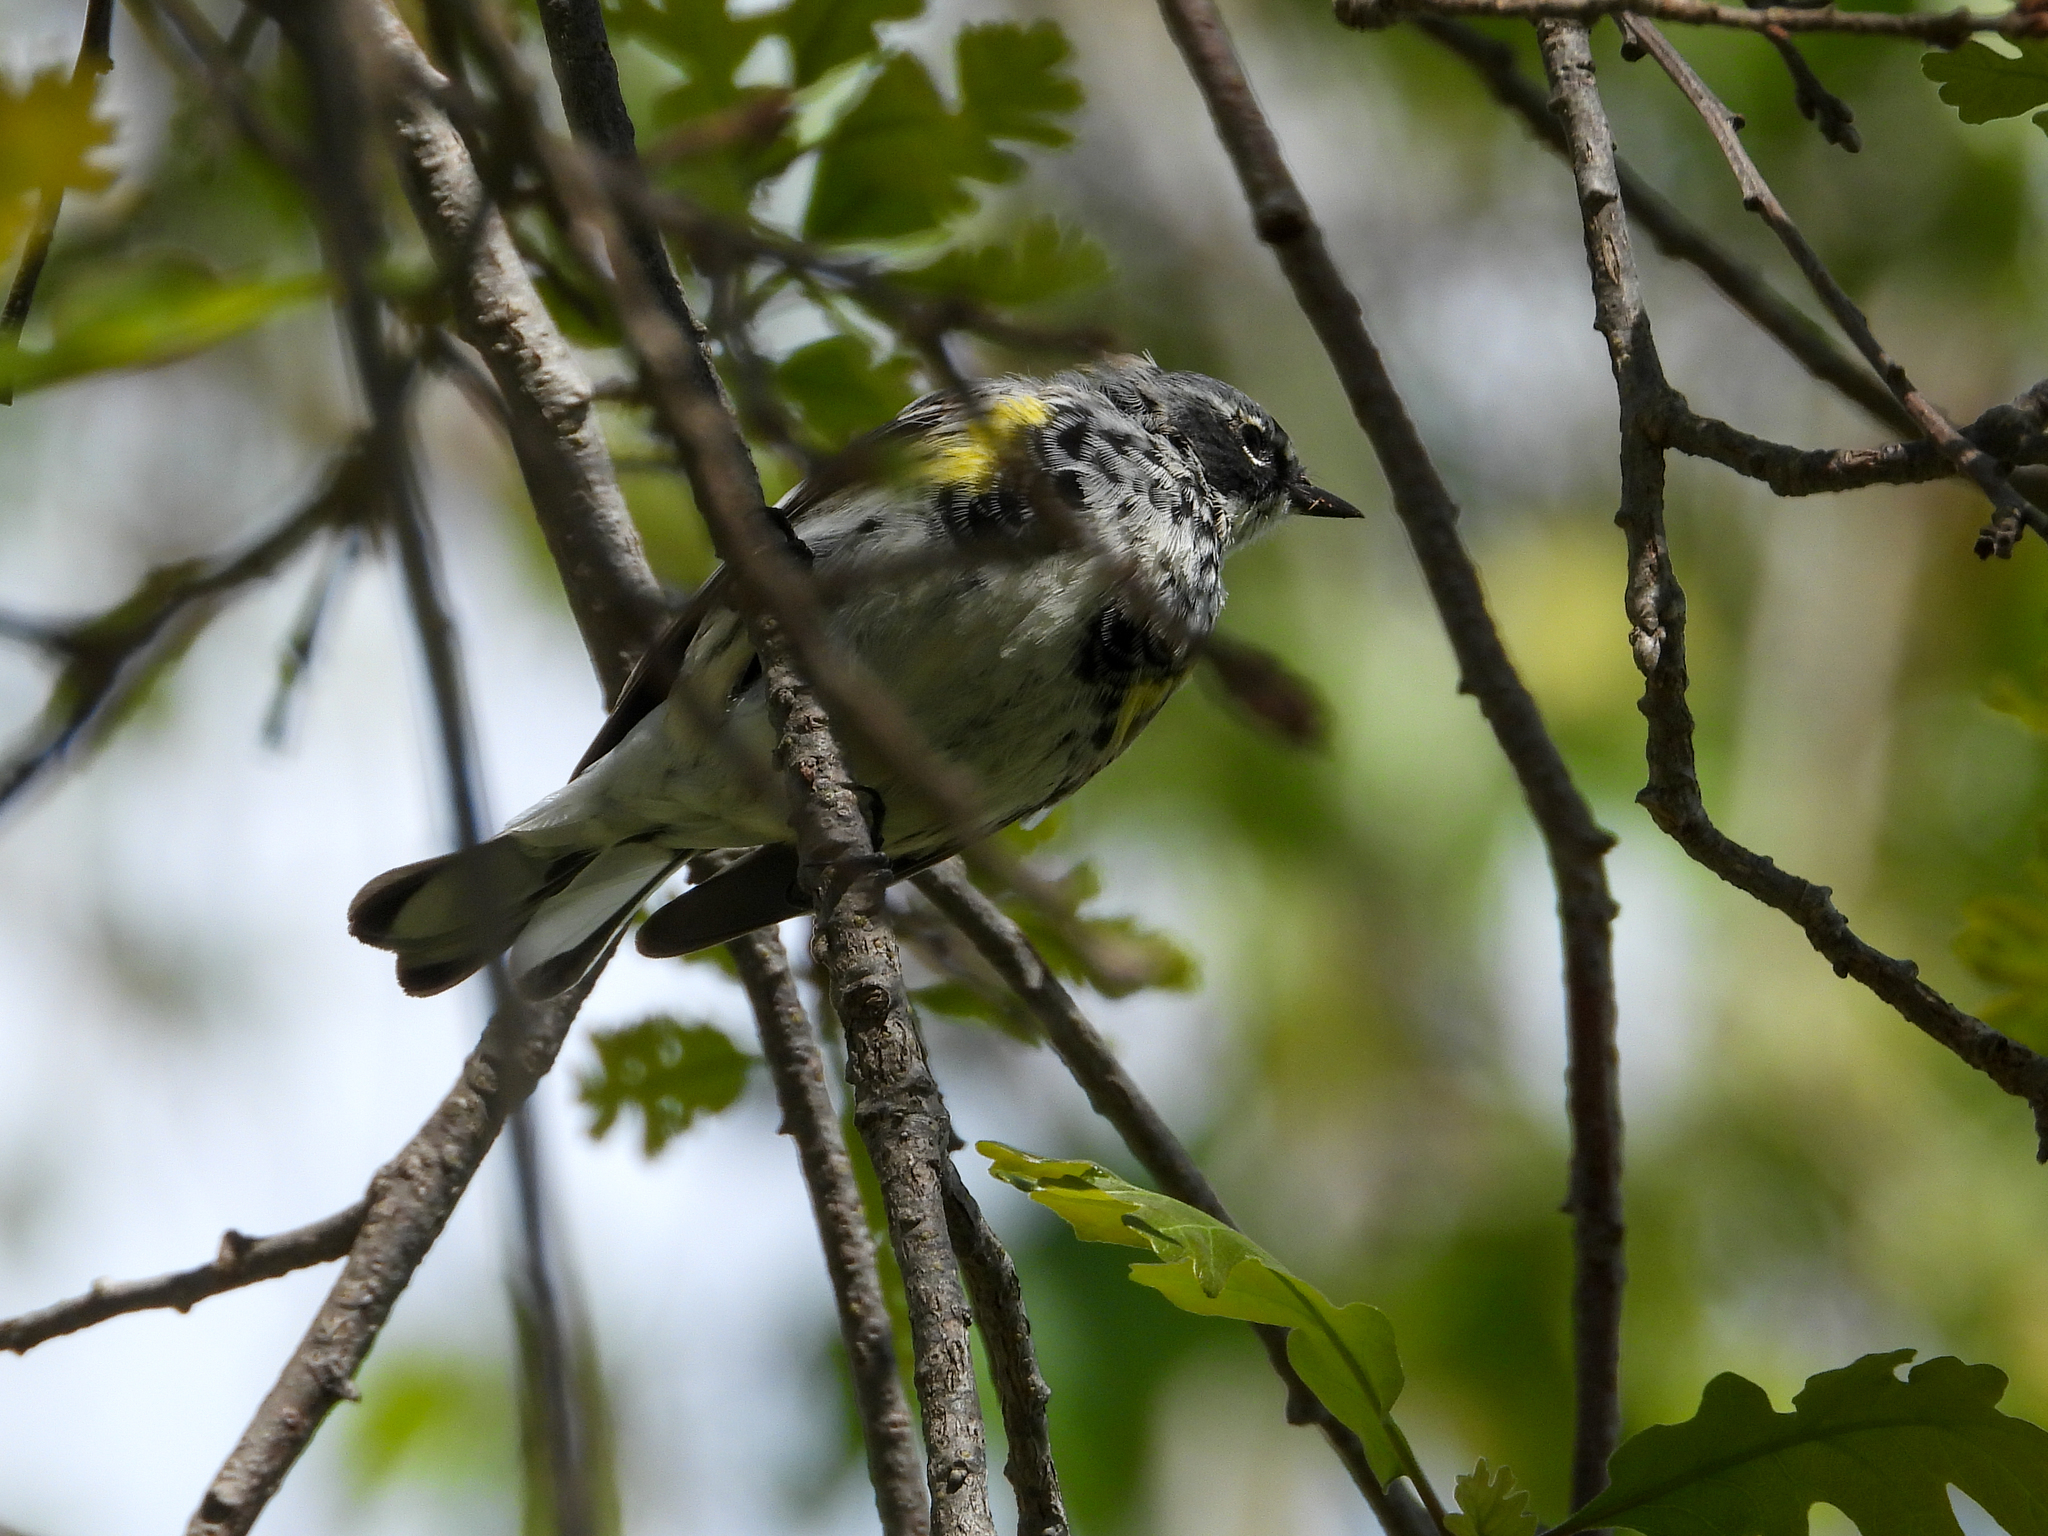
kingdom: Animalia
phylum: Chordata
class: Aves
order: Passeriformes
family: Parulidae
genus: Setophaga
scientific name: Setophaga coronata
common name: Myrtle warbler
